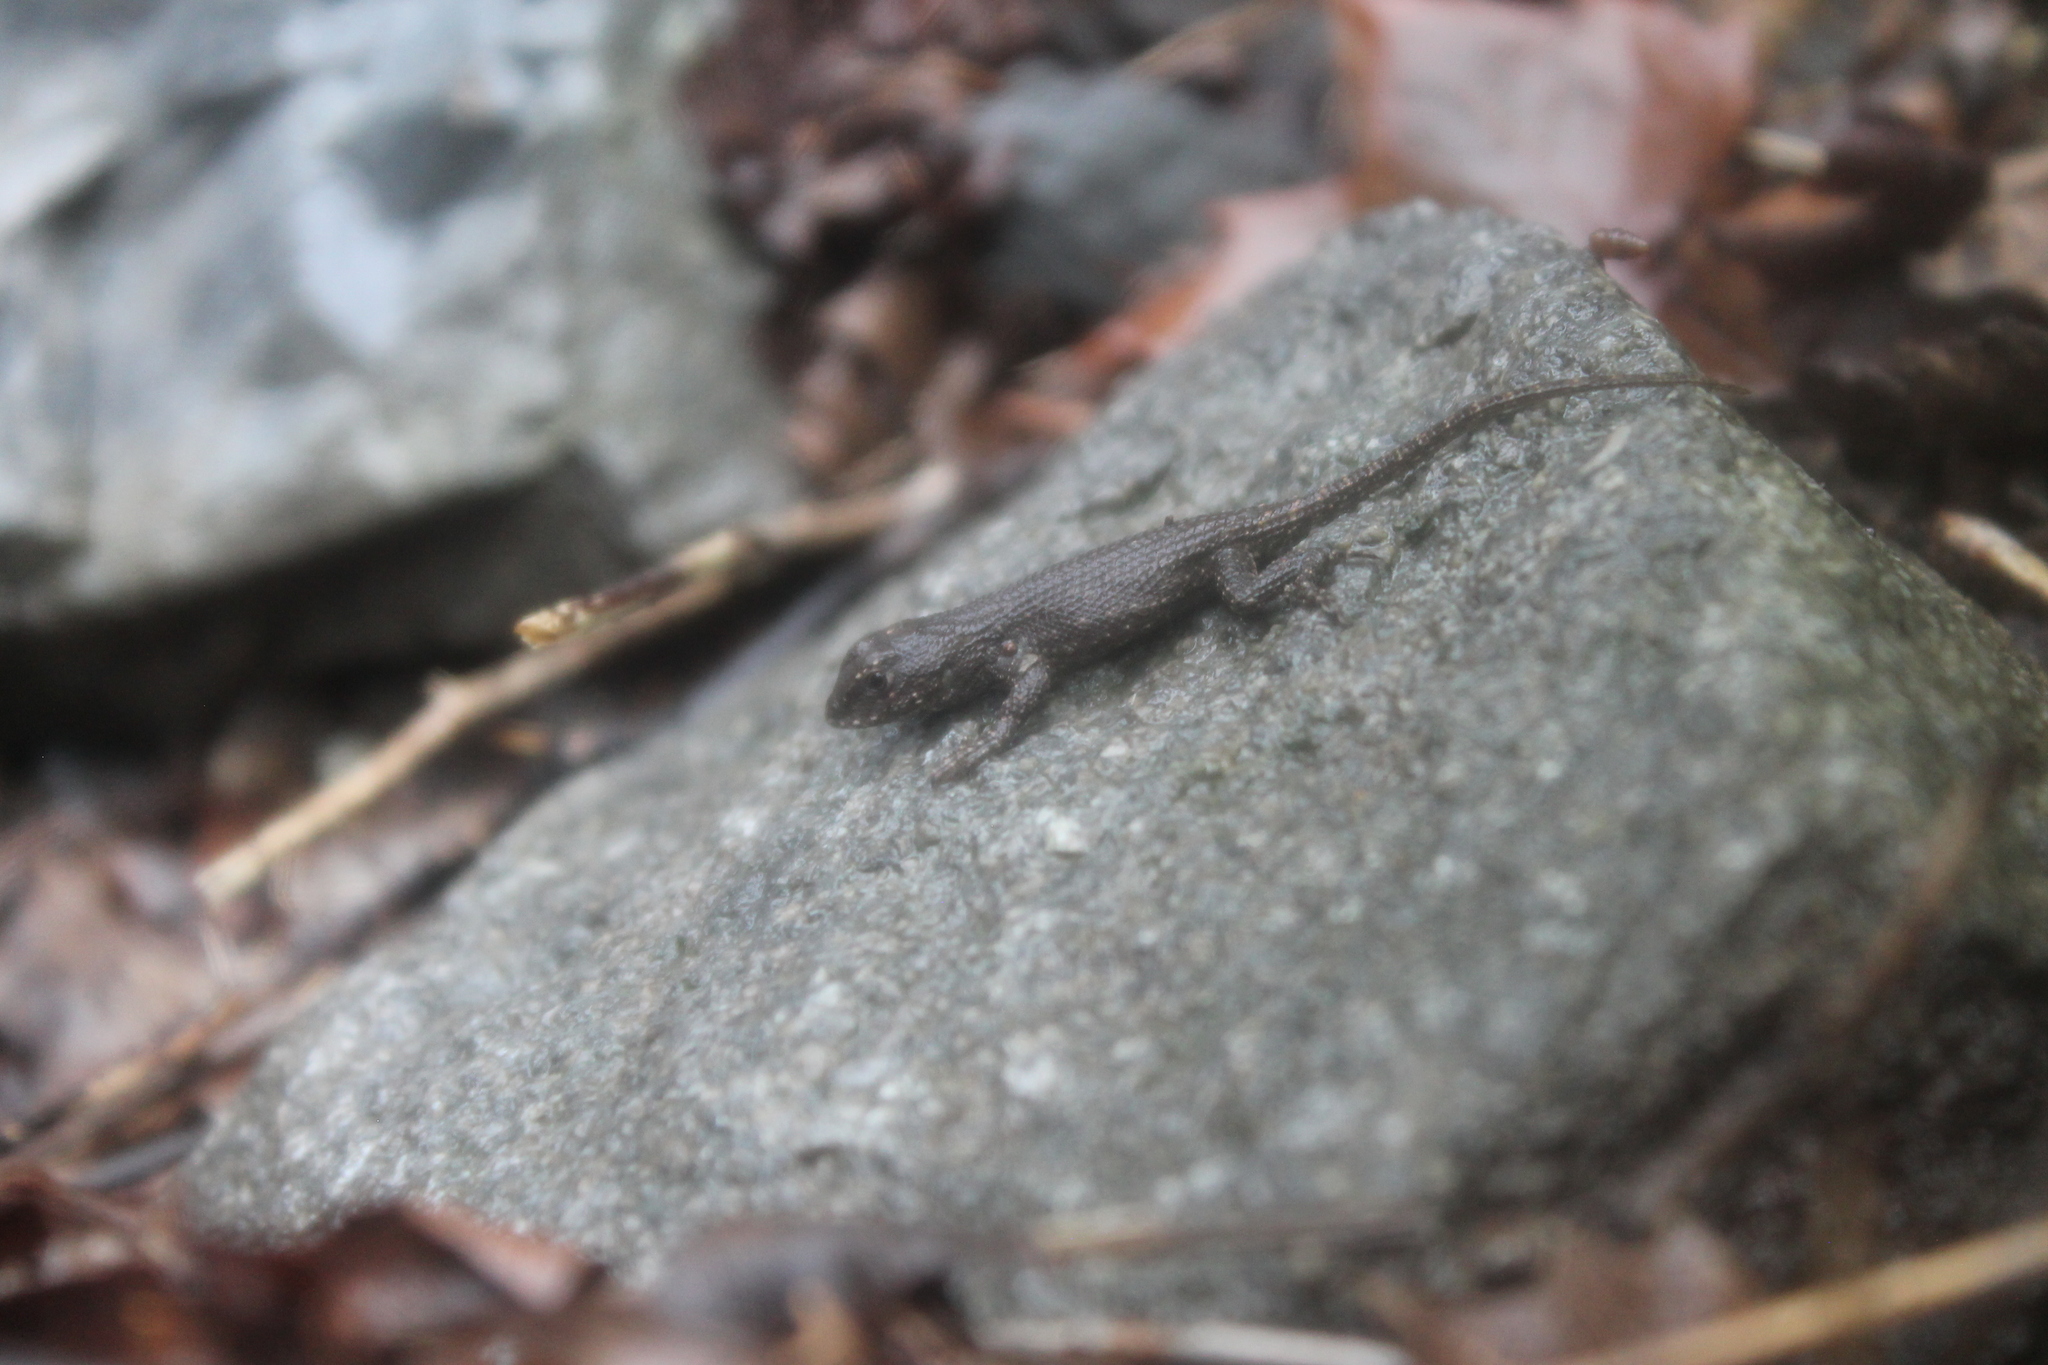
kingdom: Animalia
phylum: Chordata
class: Squamata
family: Phrynosomatidae
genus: Sceloporus
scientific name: Sceloporus undulatus
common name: Eastern fence lizard
